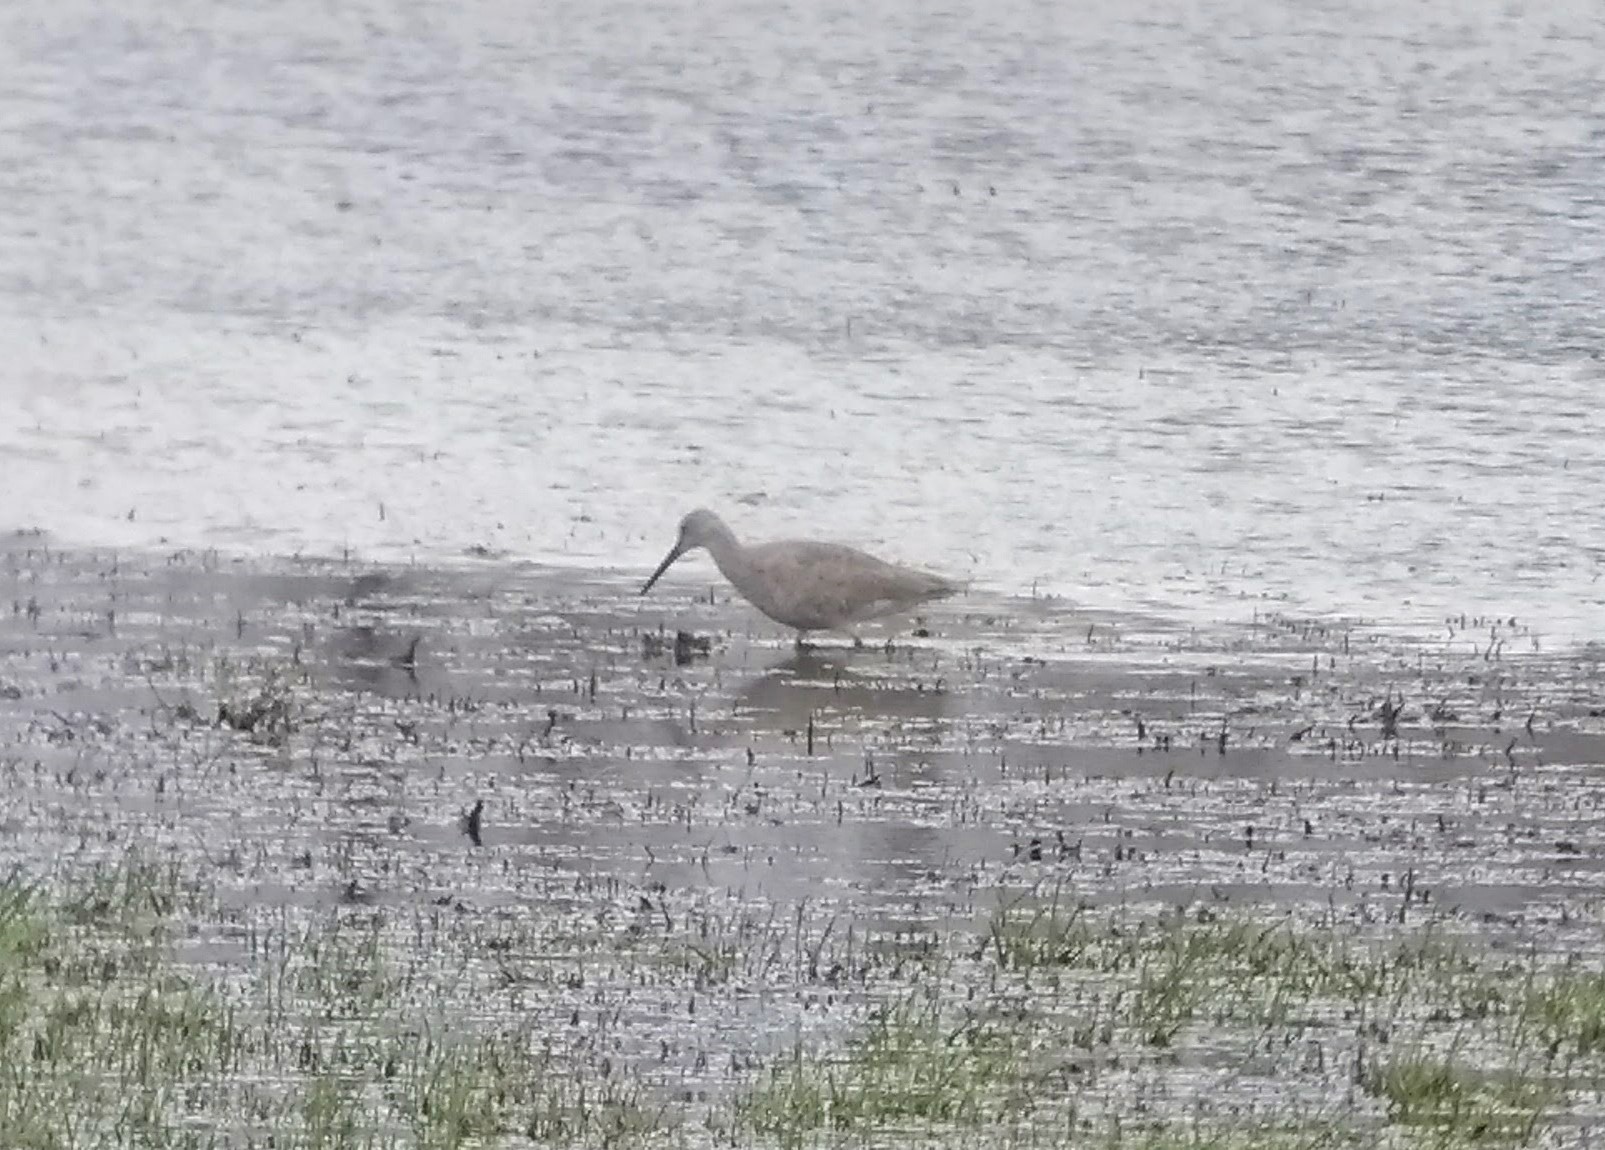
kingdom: Animalia
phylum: Chordata
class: Aves
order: Charadriiformes
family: Scolopacidae
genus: Tringa
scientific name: Tringa semipalmata
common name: Willet
